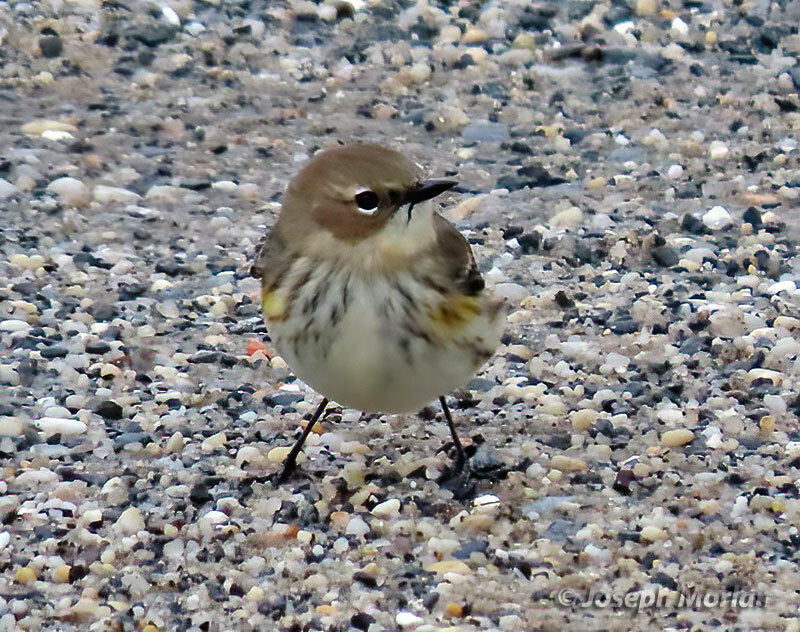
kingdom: Animalia
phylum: Chordata
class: Aves
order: Passeriformes
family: Parulidae
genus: Setophaga
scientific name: Setophaga coronata
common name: Myrtle warbler
